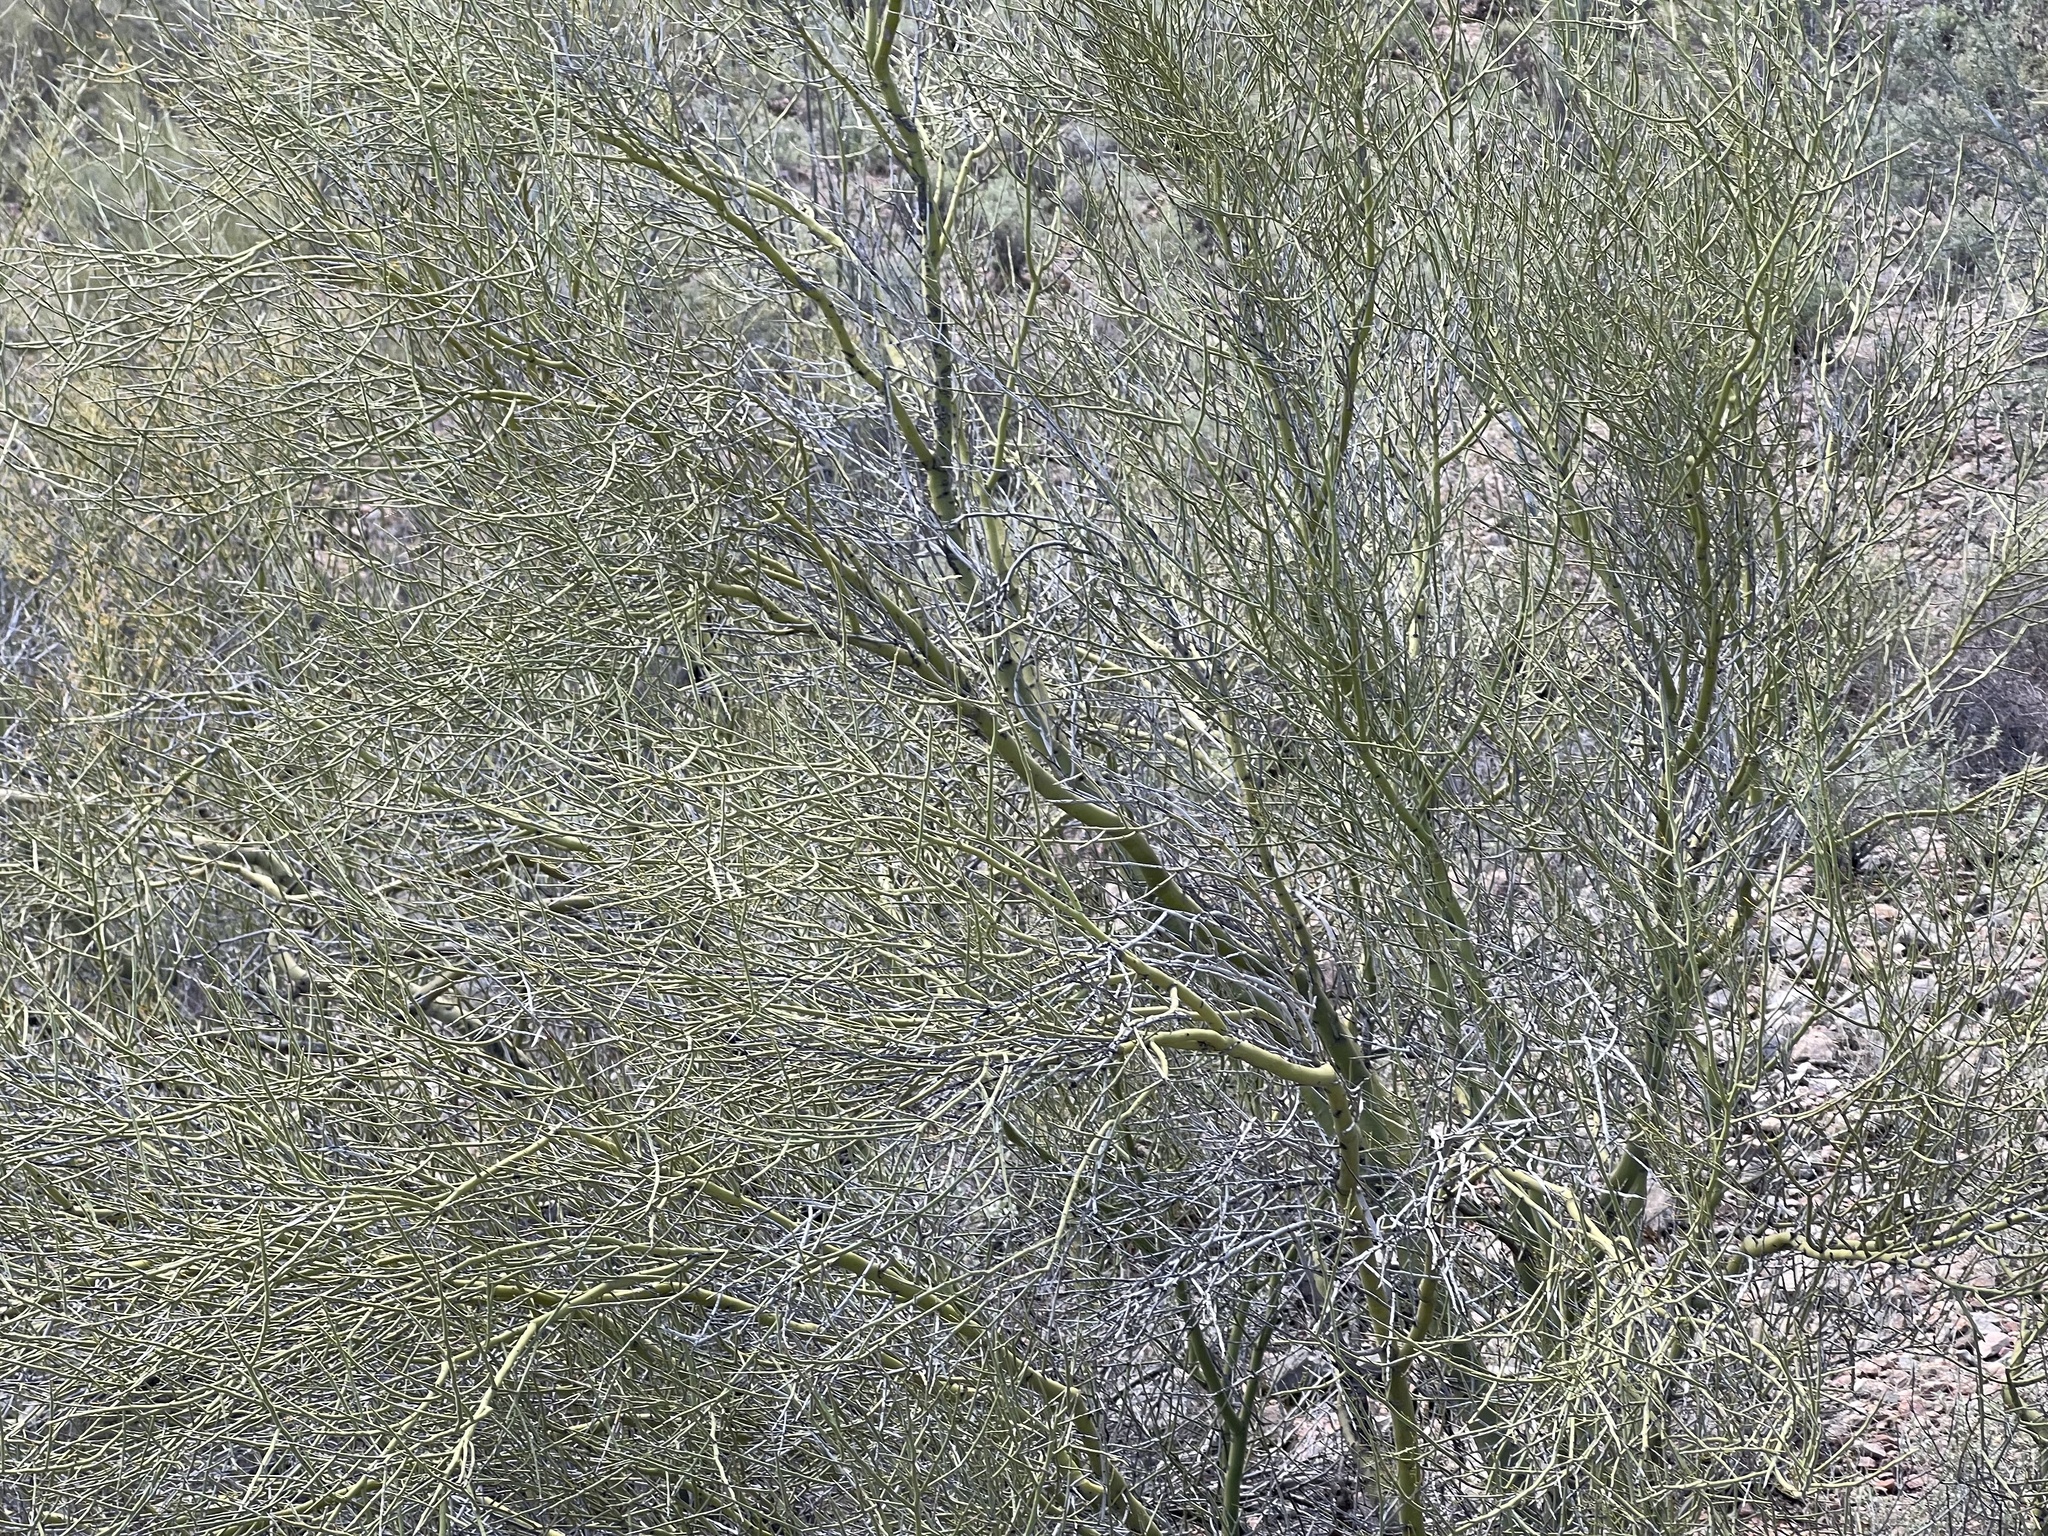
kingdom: Plantae
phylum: Tracheophyta
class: Magnoliopsida
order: Fabales
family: Fabaceae
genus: Parkinsonia
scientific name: Parkinsonia microphylla
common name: Yellow paloverde
